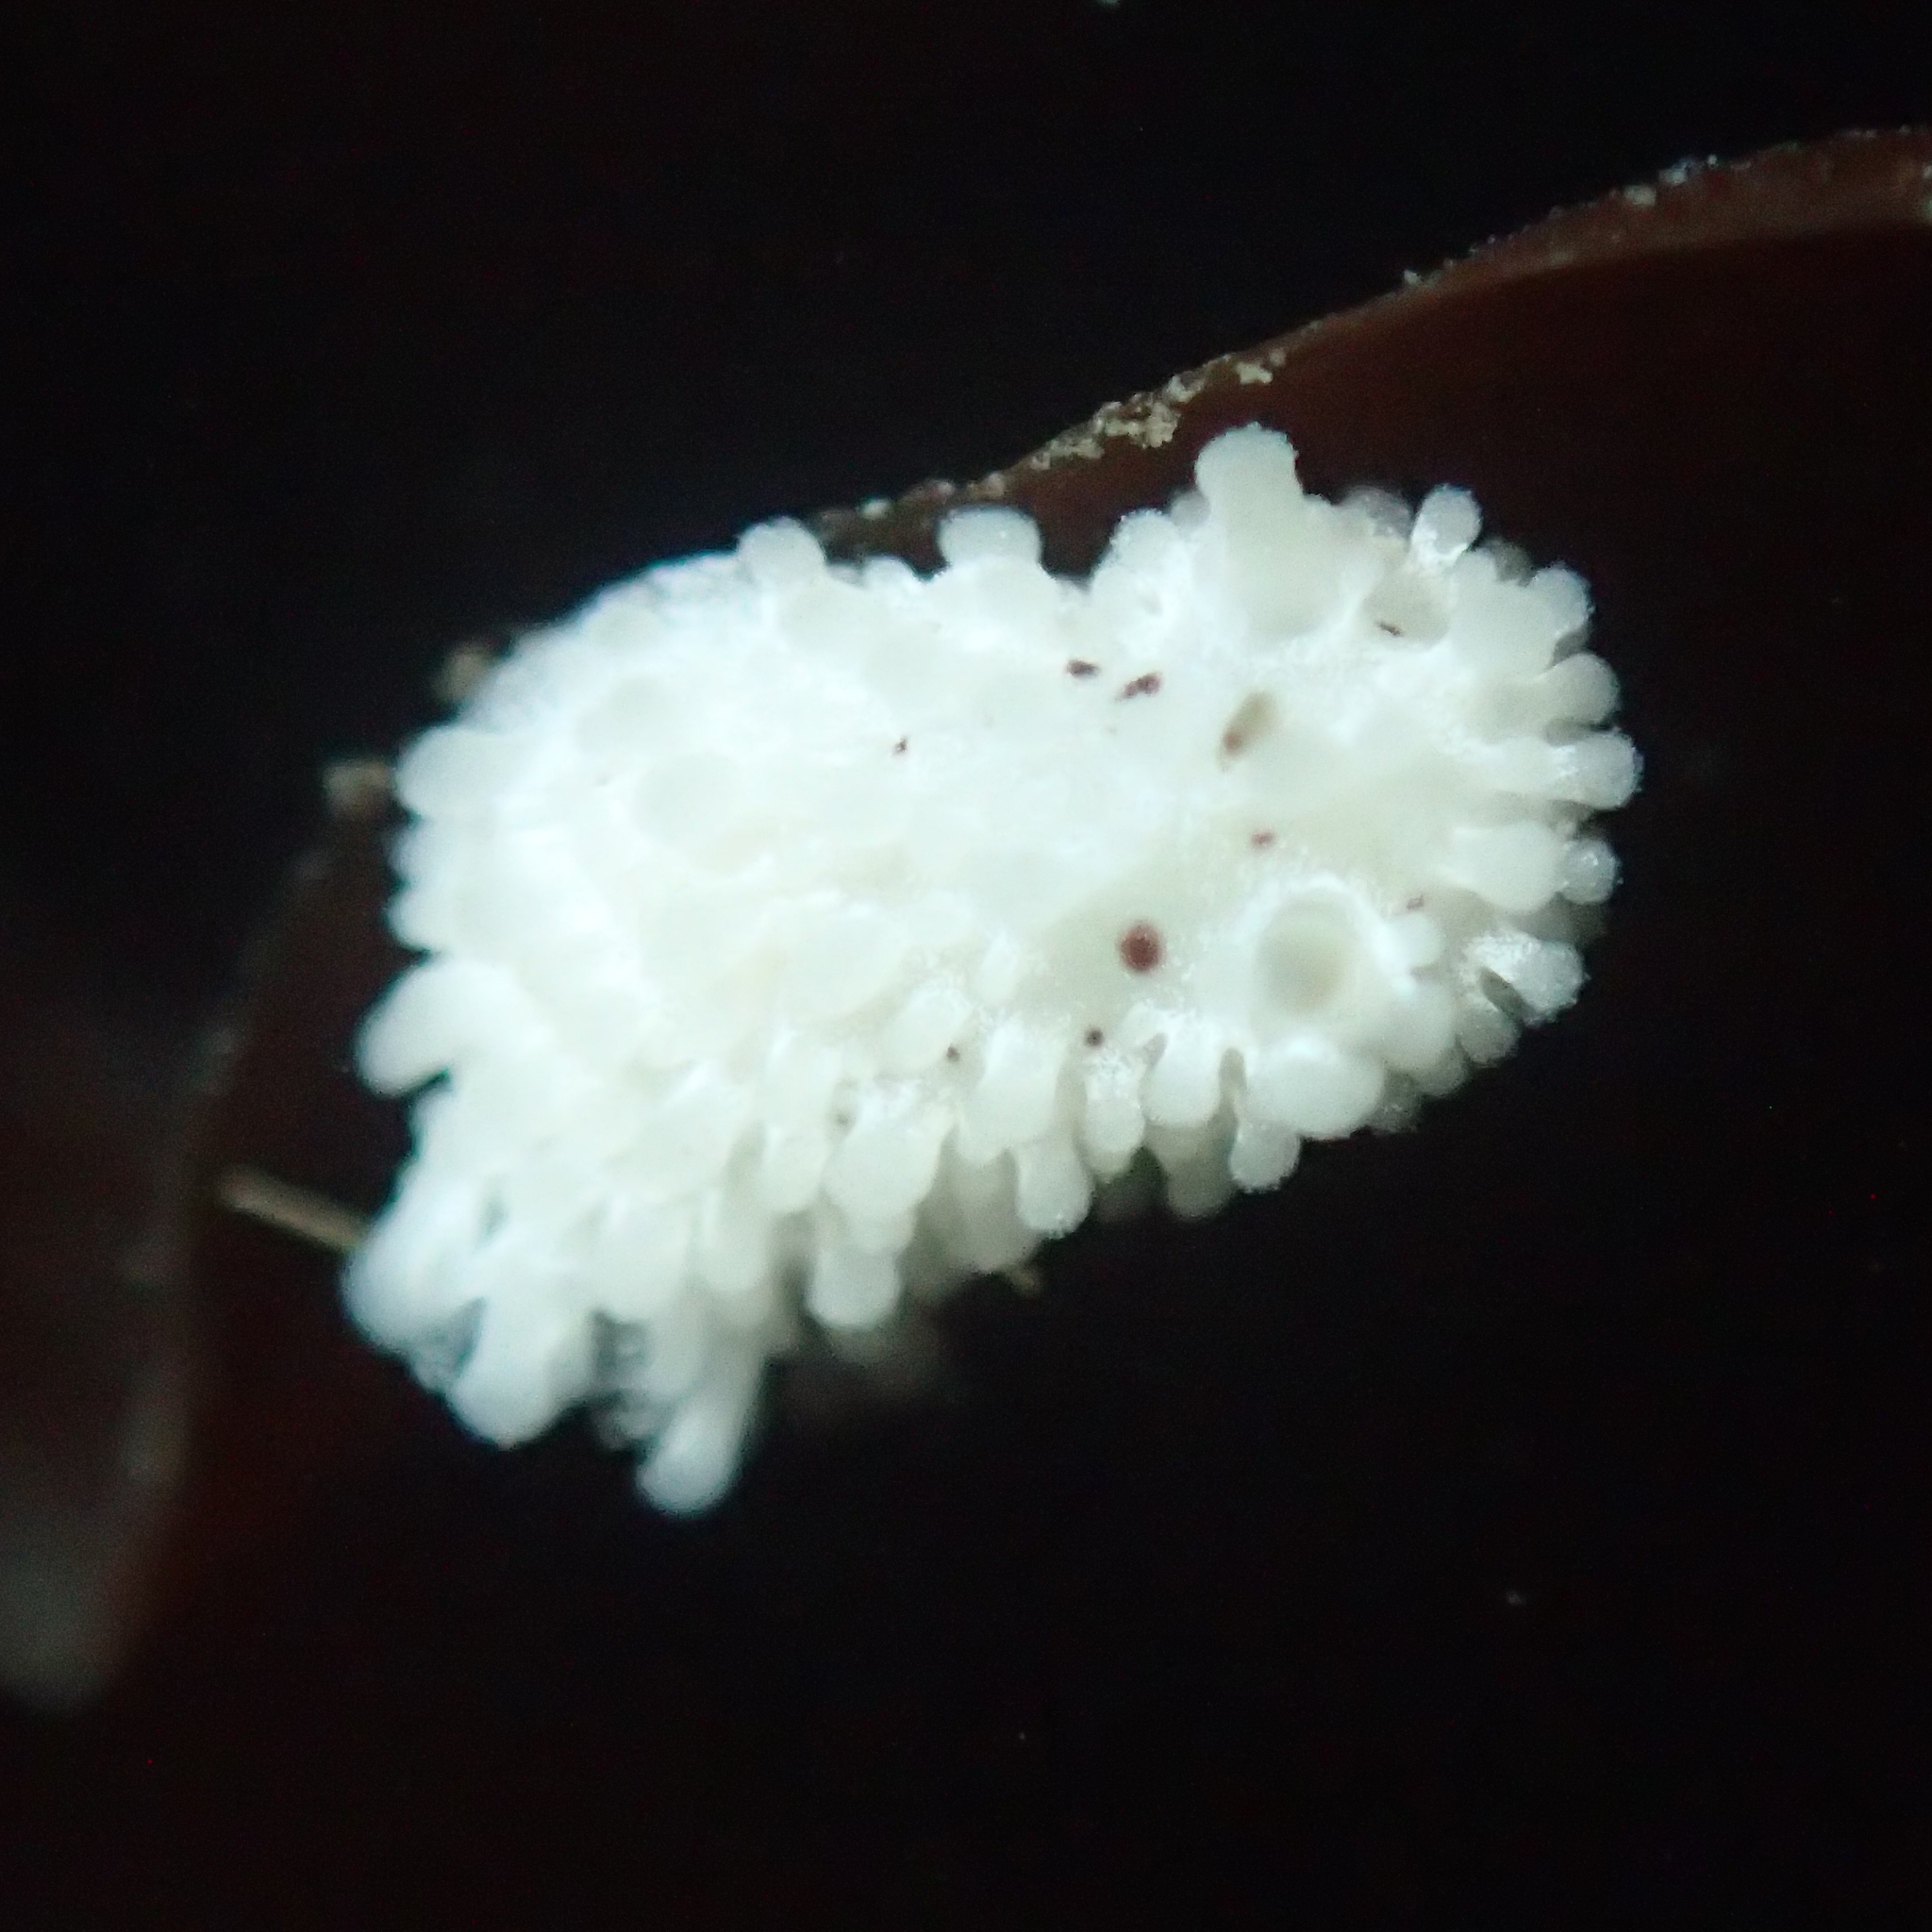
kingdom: Animalia
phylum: Mollusca
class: Gastropoda
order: Nudibranchia
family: Aegiridae
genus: Aegires
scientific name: Aegires albopunctatus
